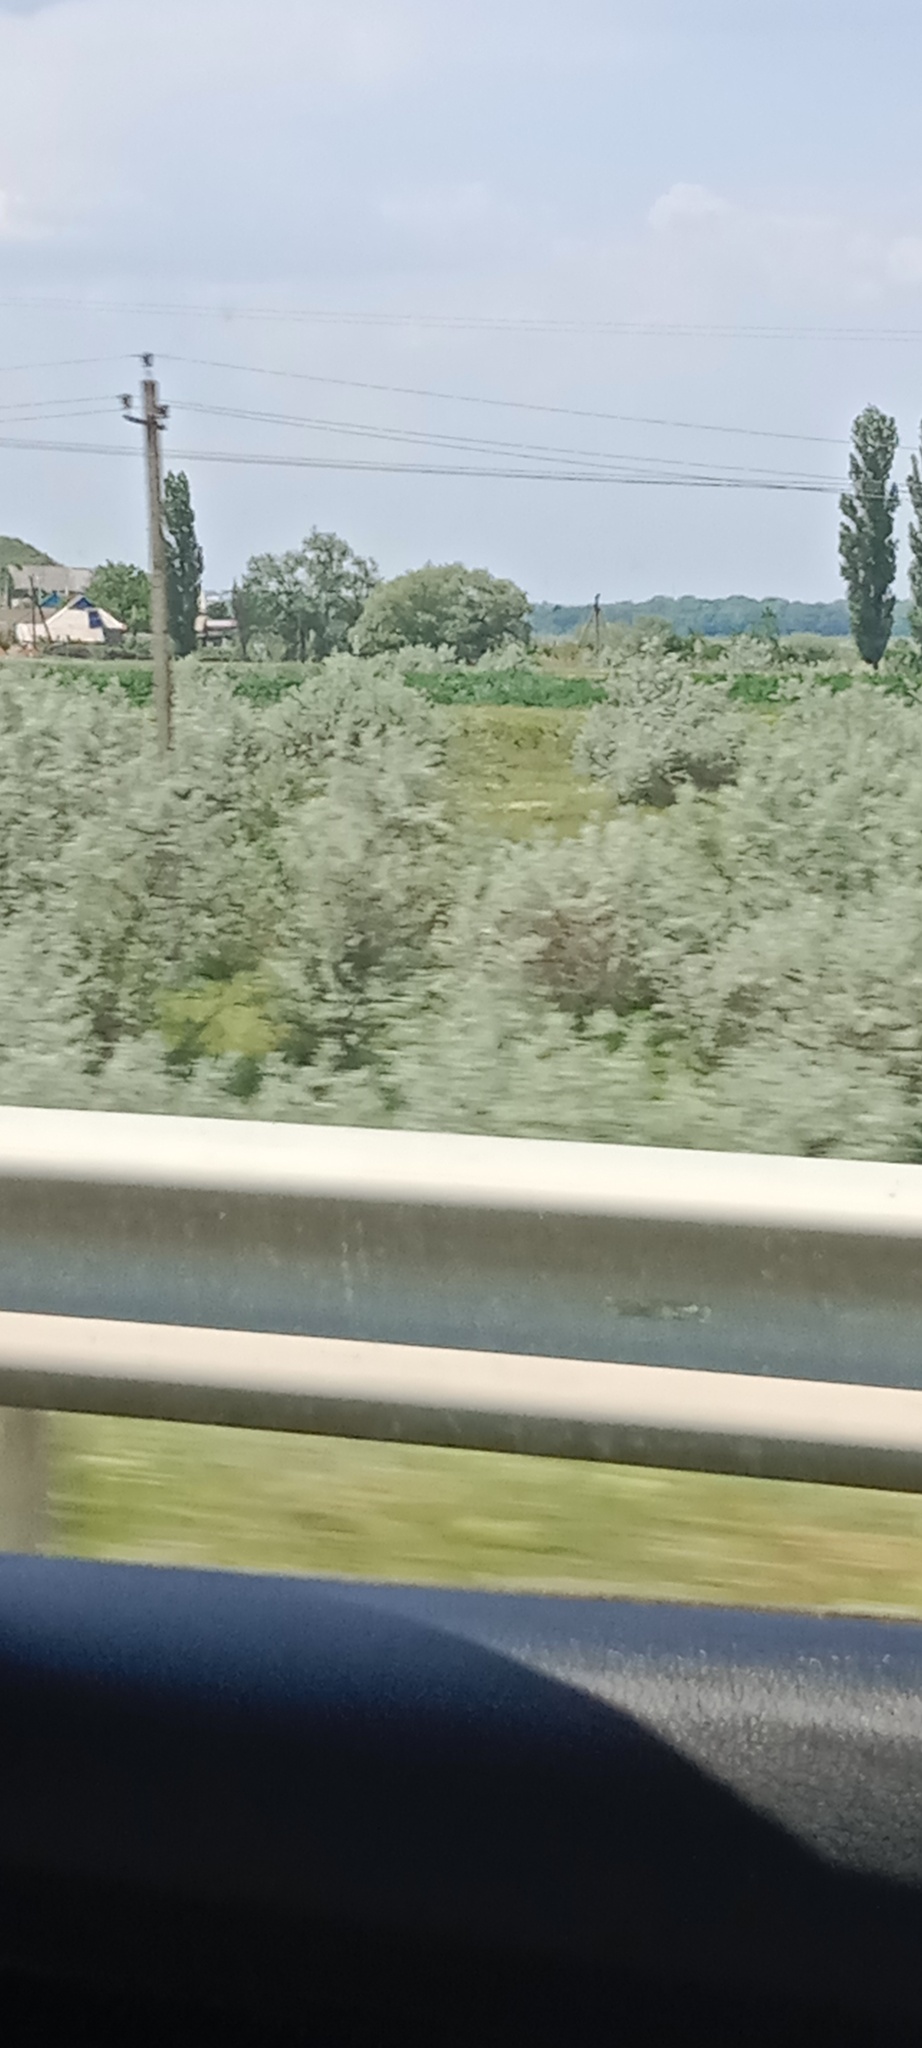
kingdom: Plantae
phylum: Tracheophyta
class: Magnoliopsida
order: Rosales
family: Elaeagnaceae
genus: Elaeagnus
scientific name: Elaeagnus angustifolia
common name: Russian olive
